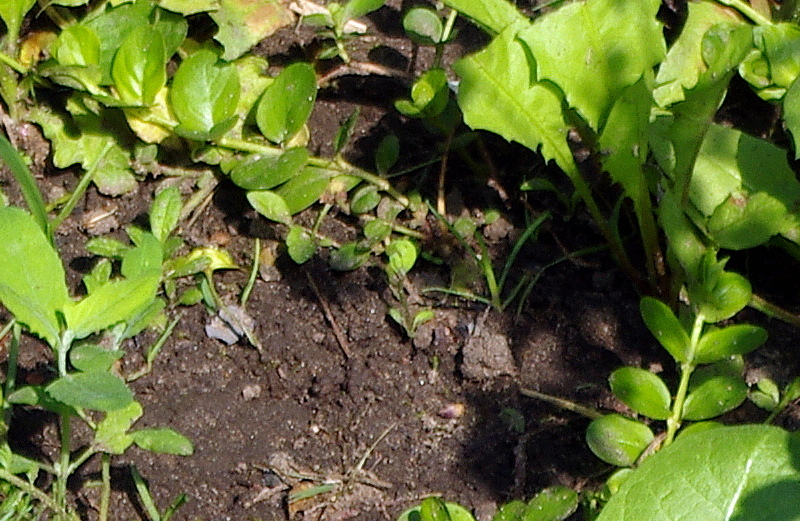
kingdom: Plantae
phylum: Tracheophyta
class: Magnoliopsida
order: Ericales
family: Primulaceae
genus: Lysimachia
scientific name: Lysimachia nummularia
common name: Moneywort
